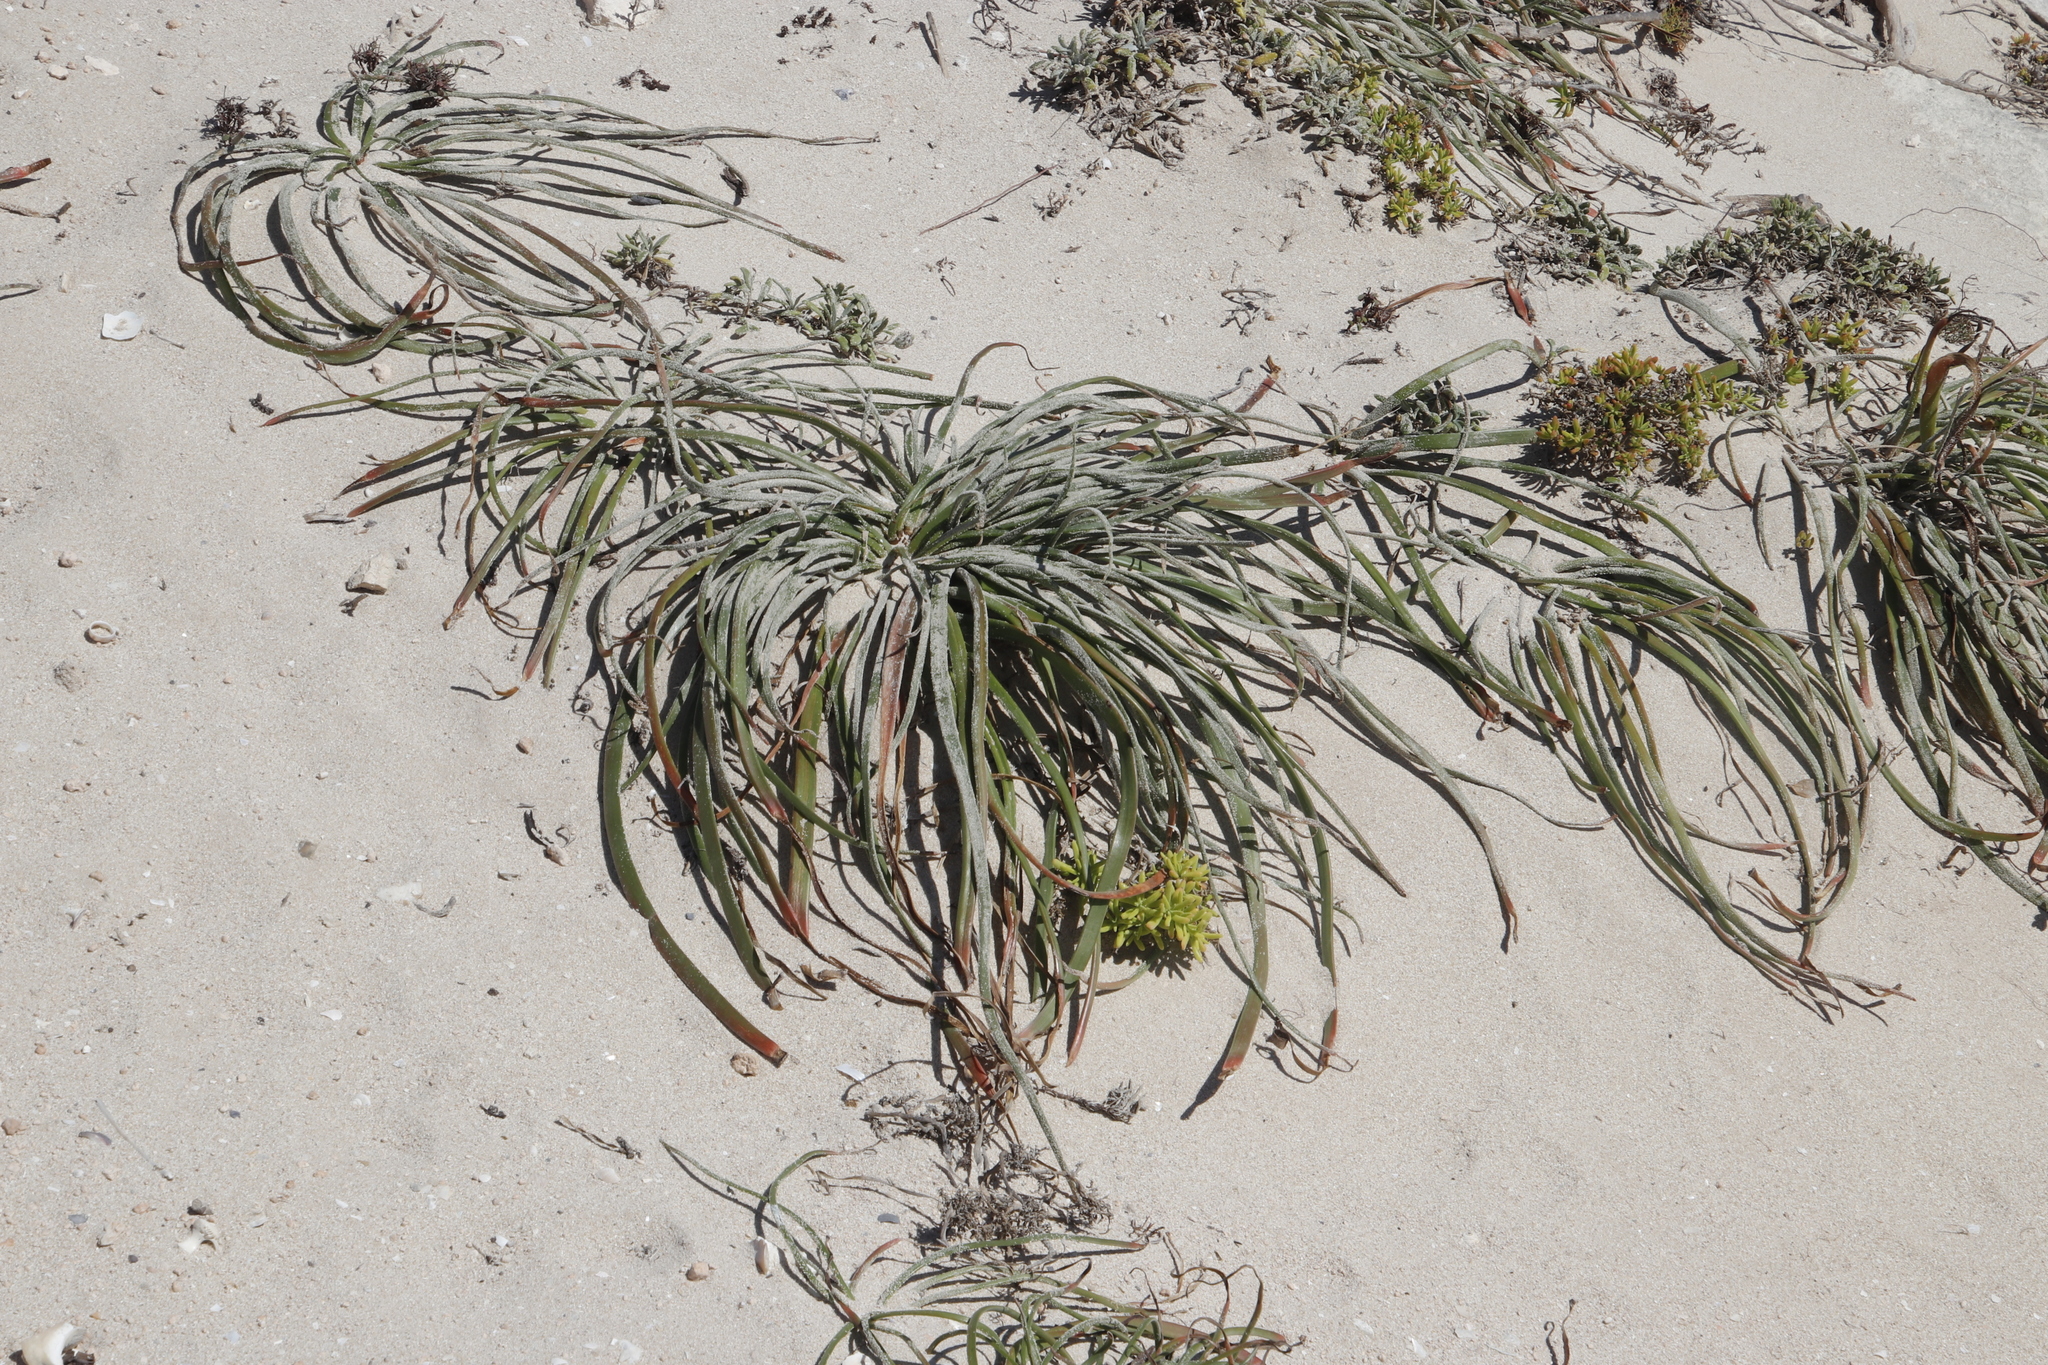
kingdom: Plantae
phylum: Tracheophyta
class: Liliopsida
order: Asparagales
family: Asphodelaceae
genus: Trachyandra
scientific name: Trachyandra divaricata
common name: Dune onionweed
